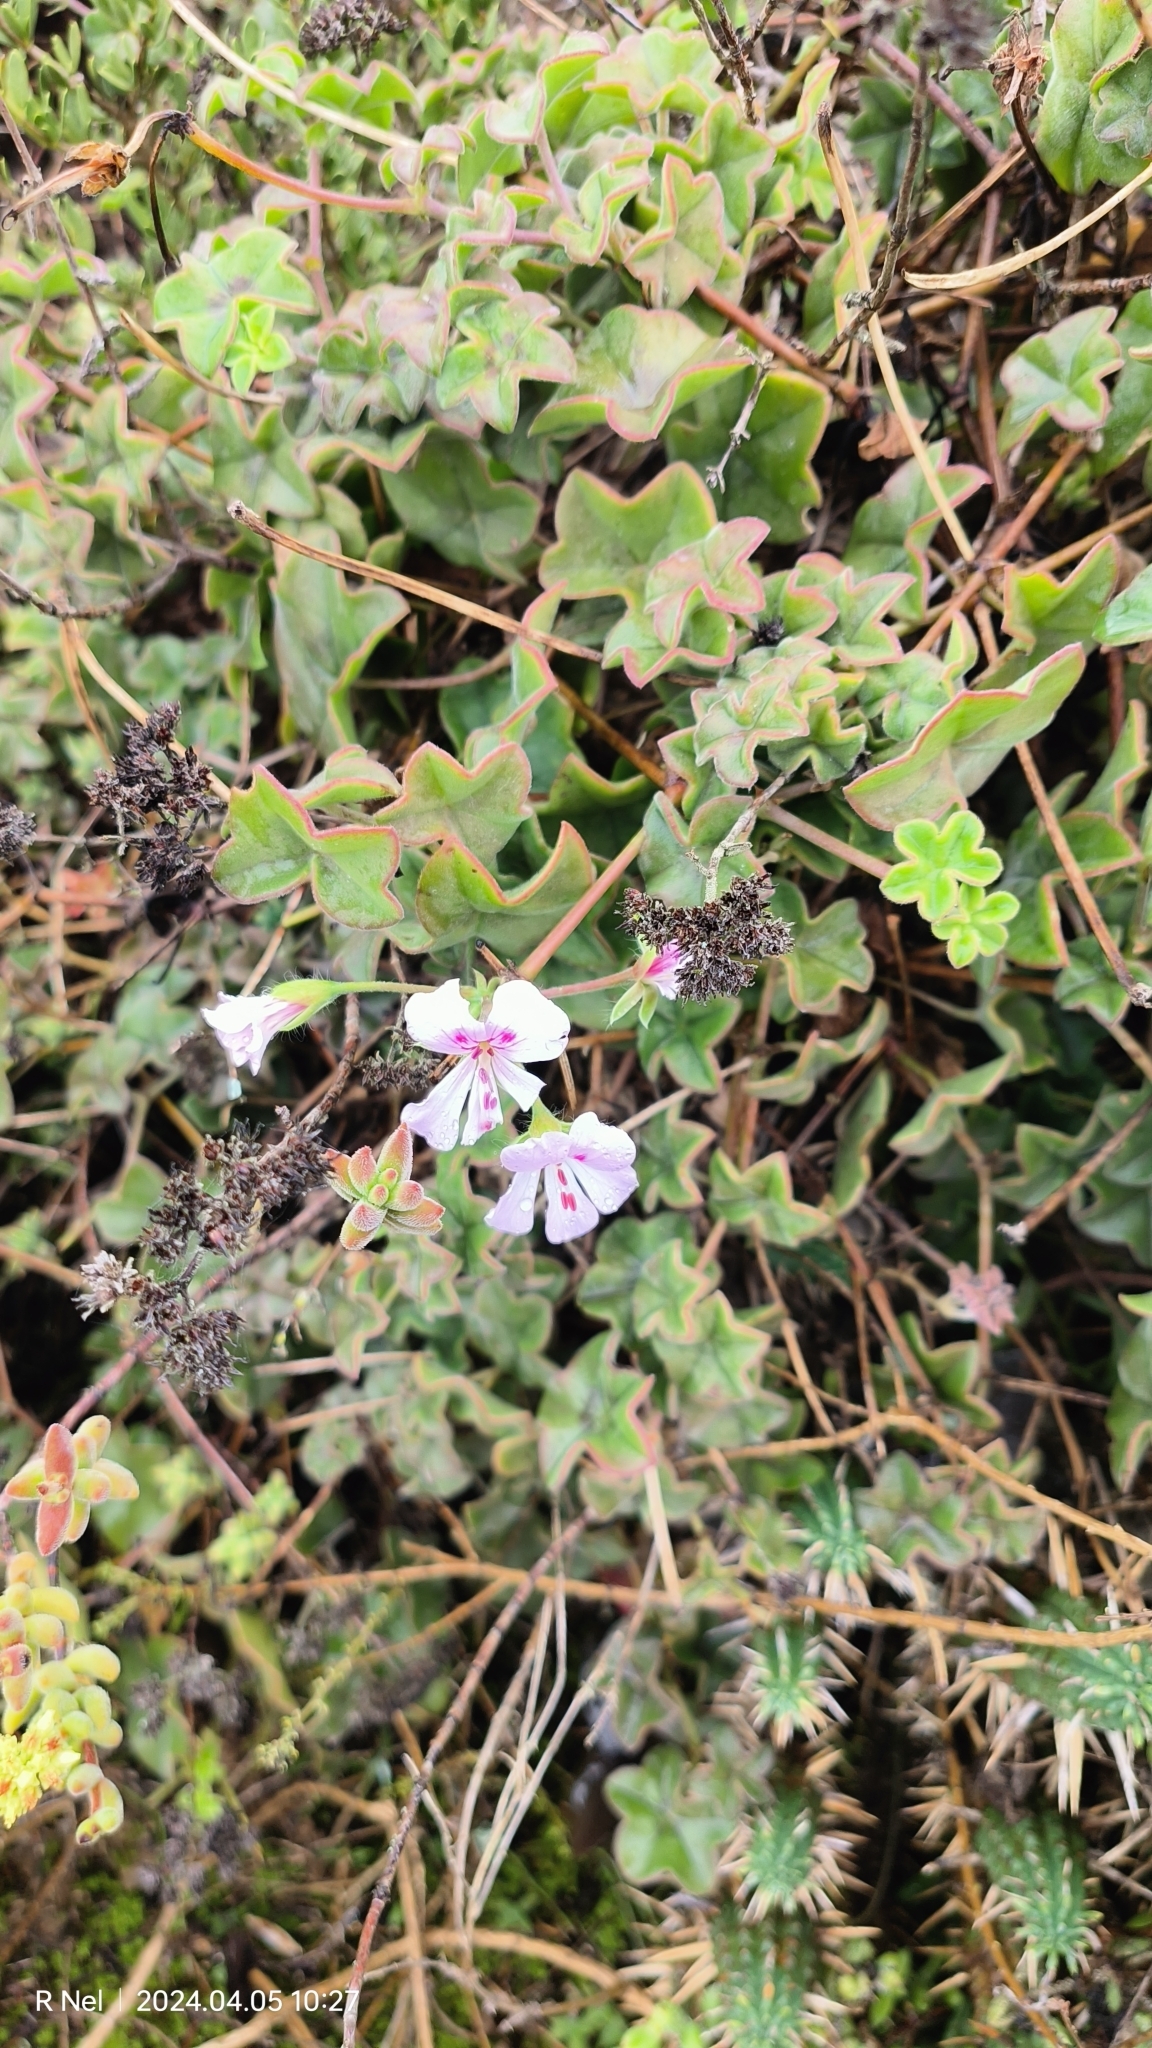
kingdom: Plantae
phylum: Tracheophyta
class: Magnoliopsida
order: Geraniales
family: Geraniaceae
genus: Pelargonium
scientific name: Pelargonium peltatum
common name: Ivyleaf geranium
